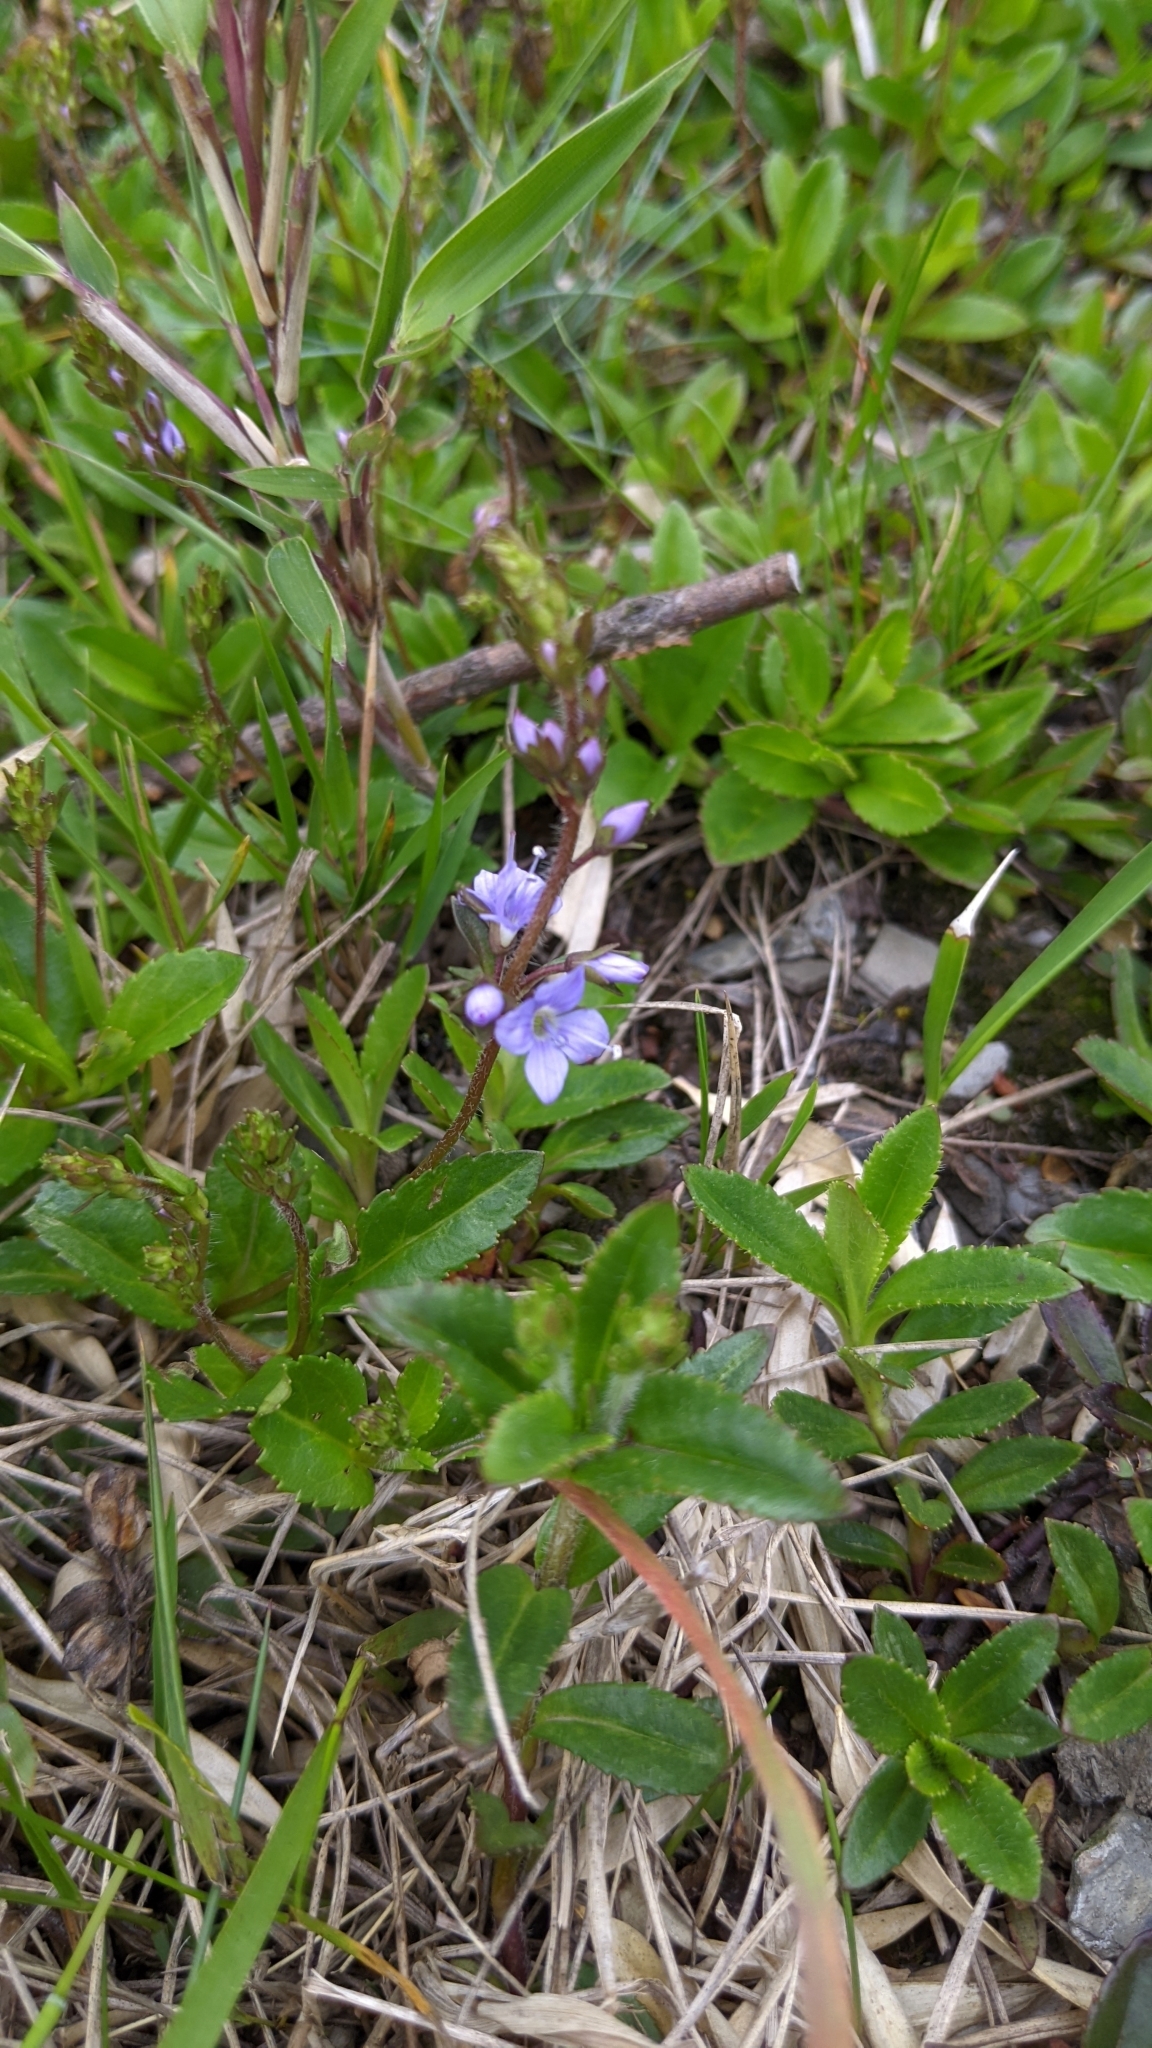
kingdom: Plantae
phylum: Tracheophyta
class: Magnoliopsida
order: Lamiales
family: Plantaginaceae
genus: Veronica
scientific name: Veronica morrisonicola
